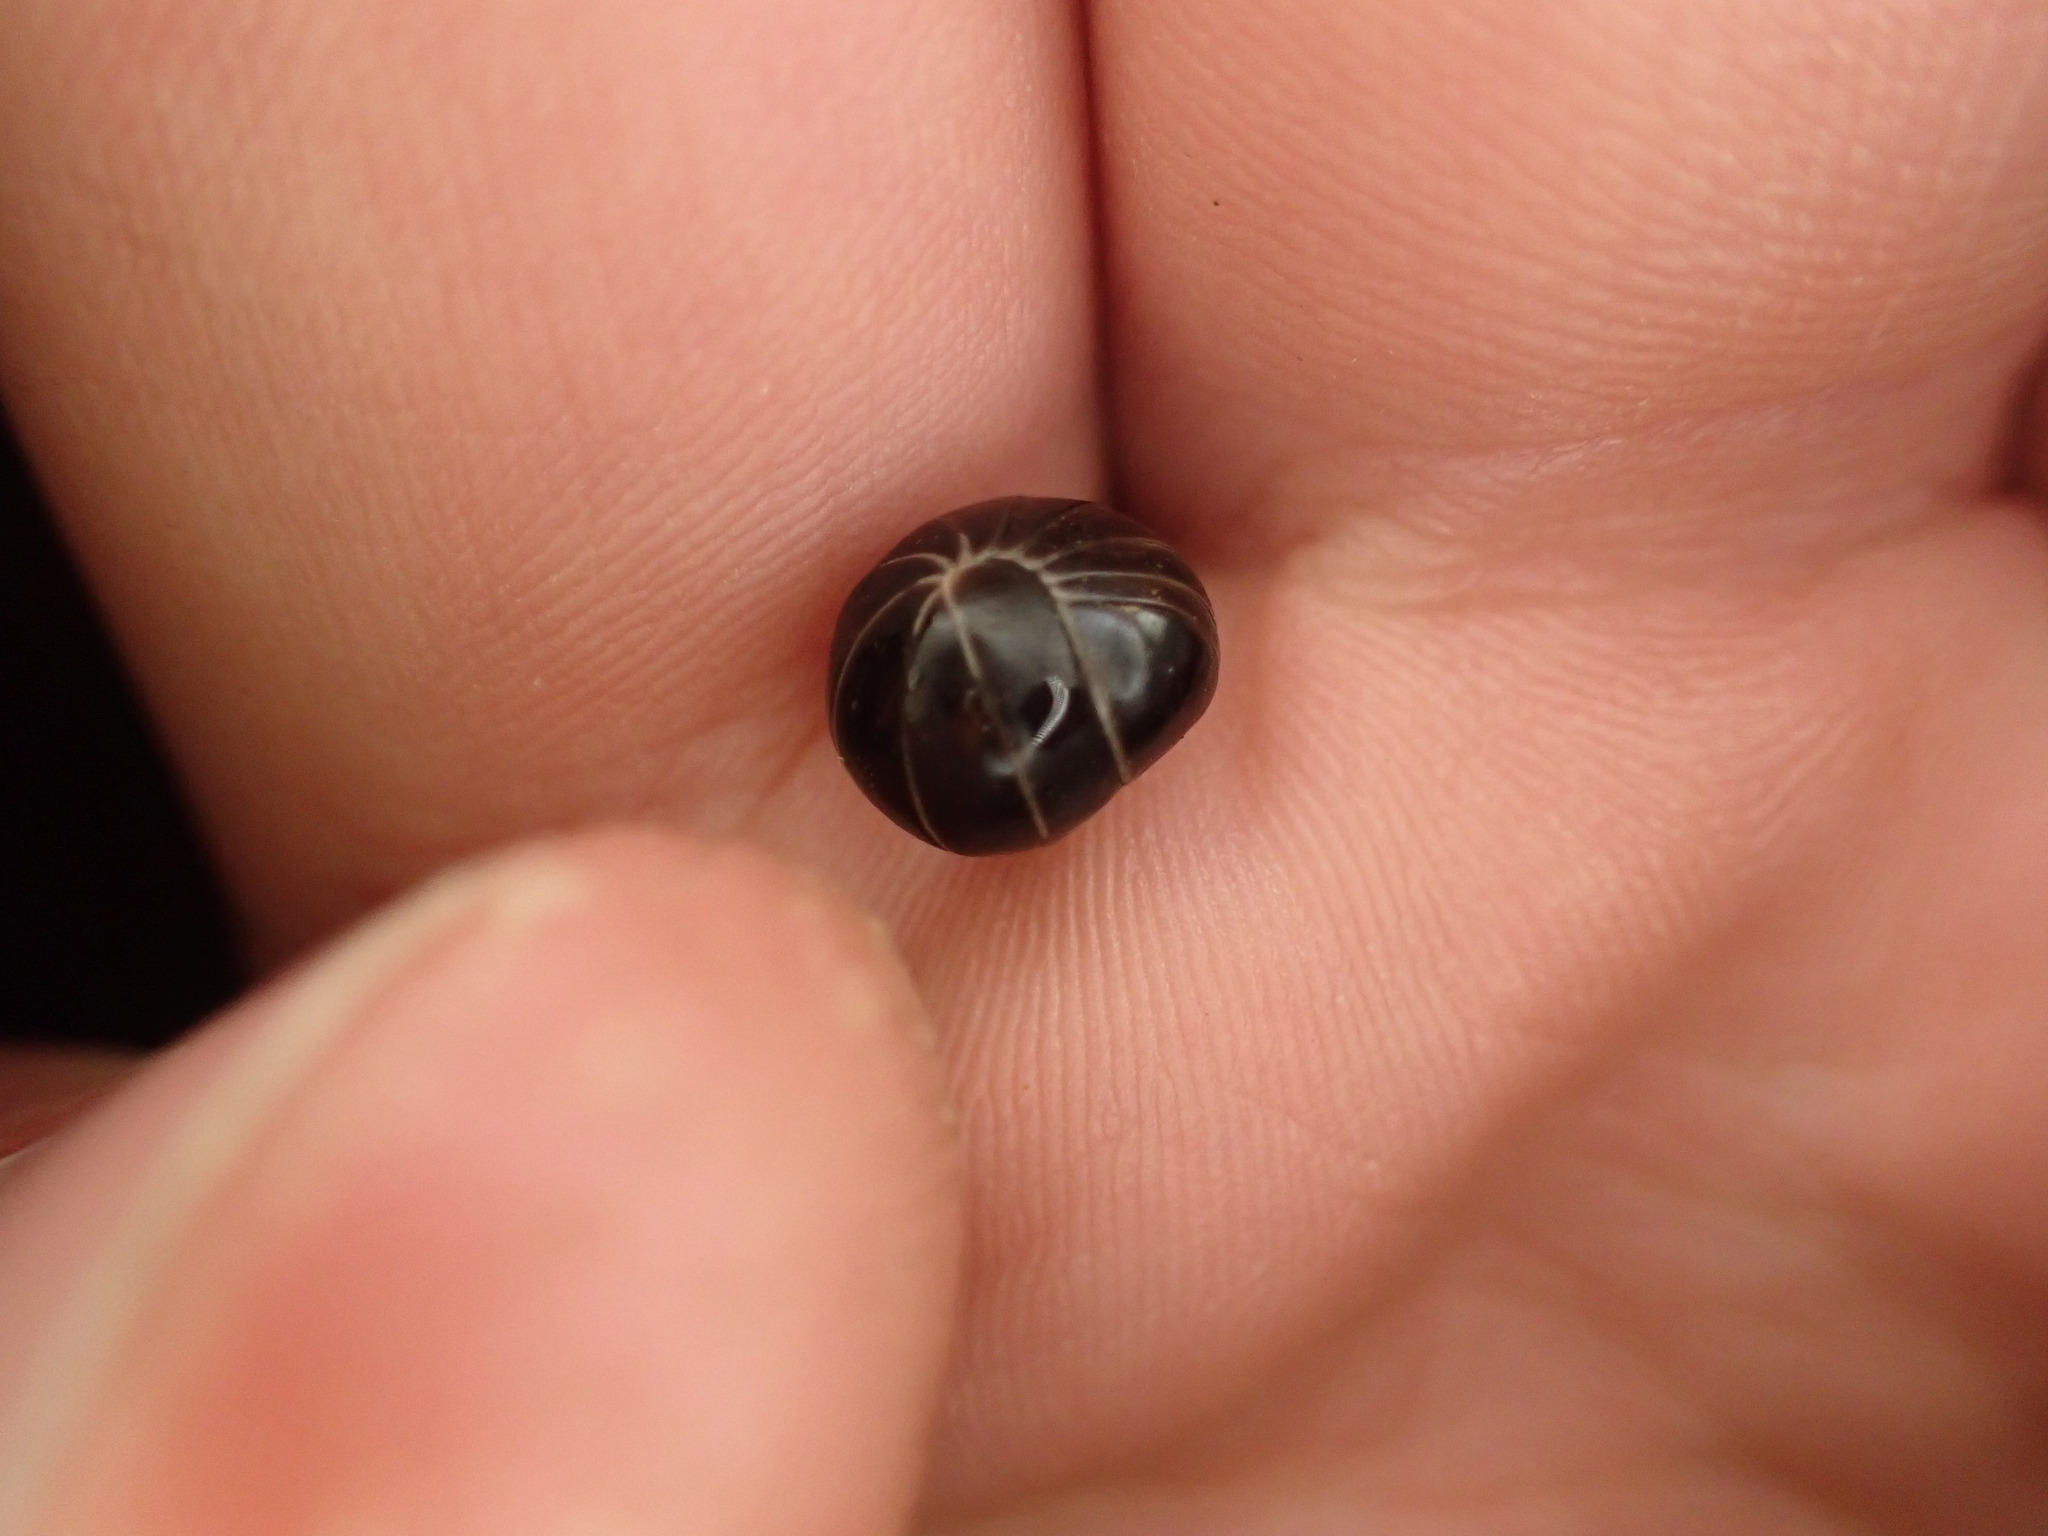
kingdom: Animalia
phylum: Arthropoda
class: Diplopoda
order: Glomerida
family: Glomeridae
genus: Glomeris
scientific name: Glomeris marginata
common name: Bordered pill millipede
